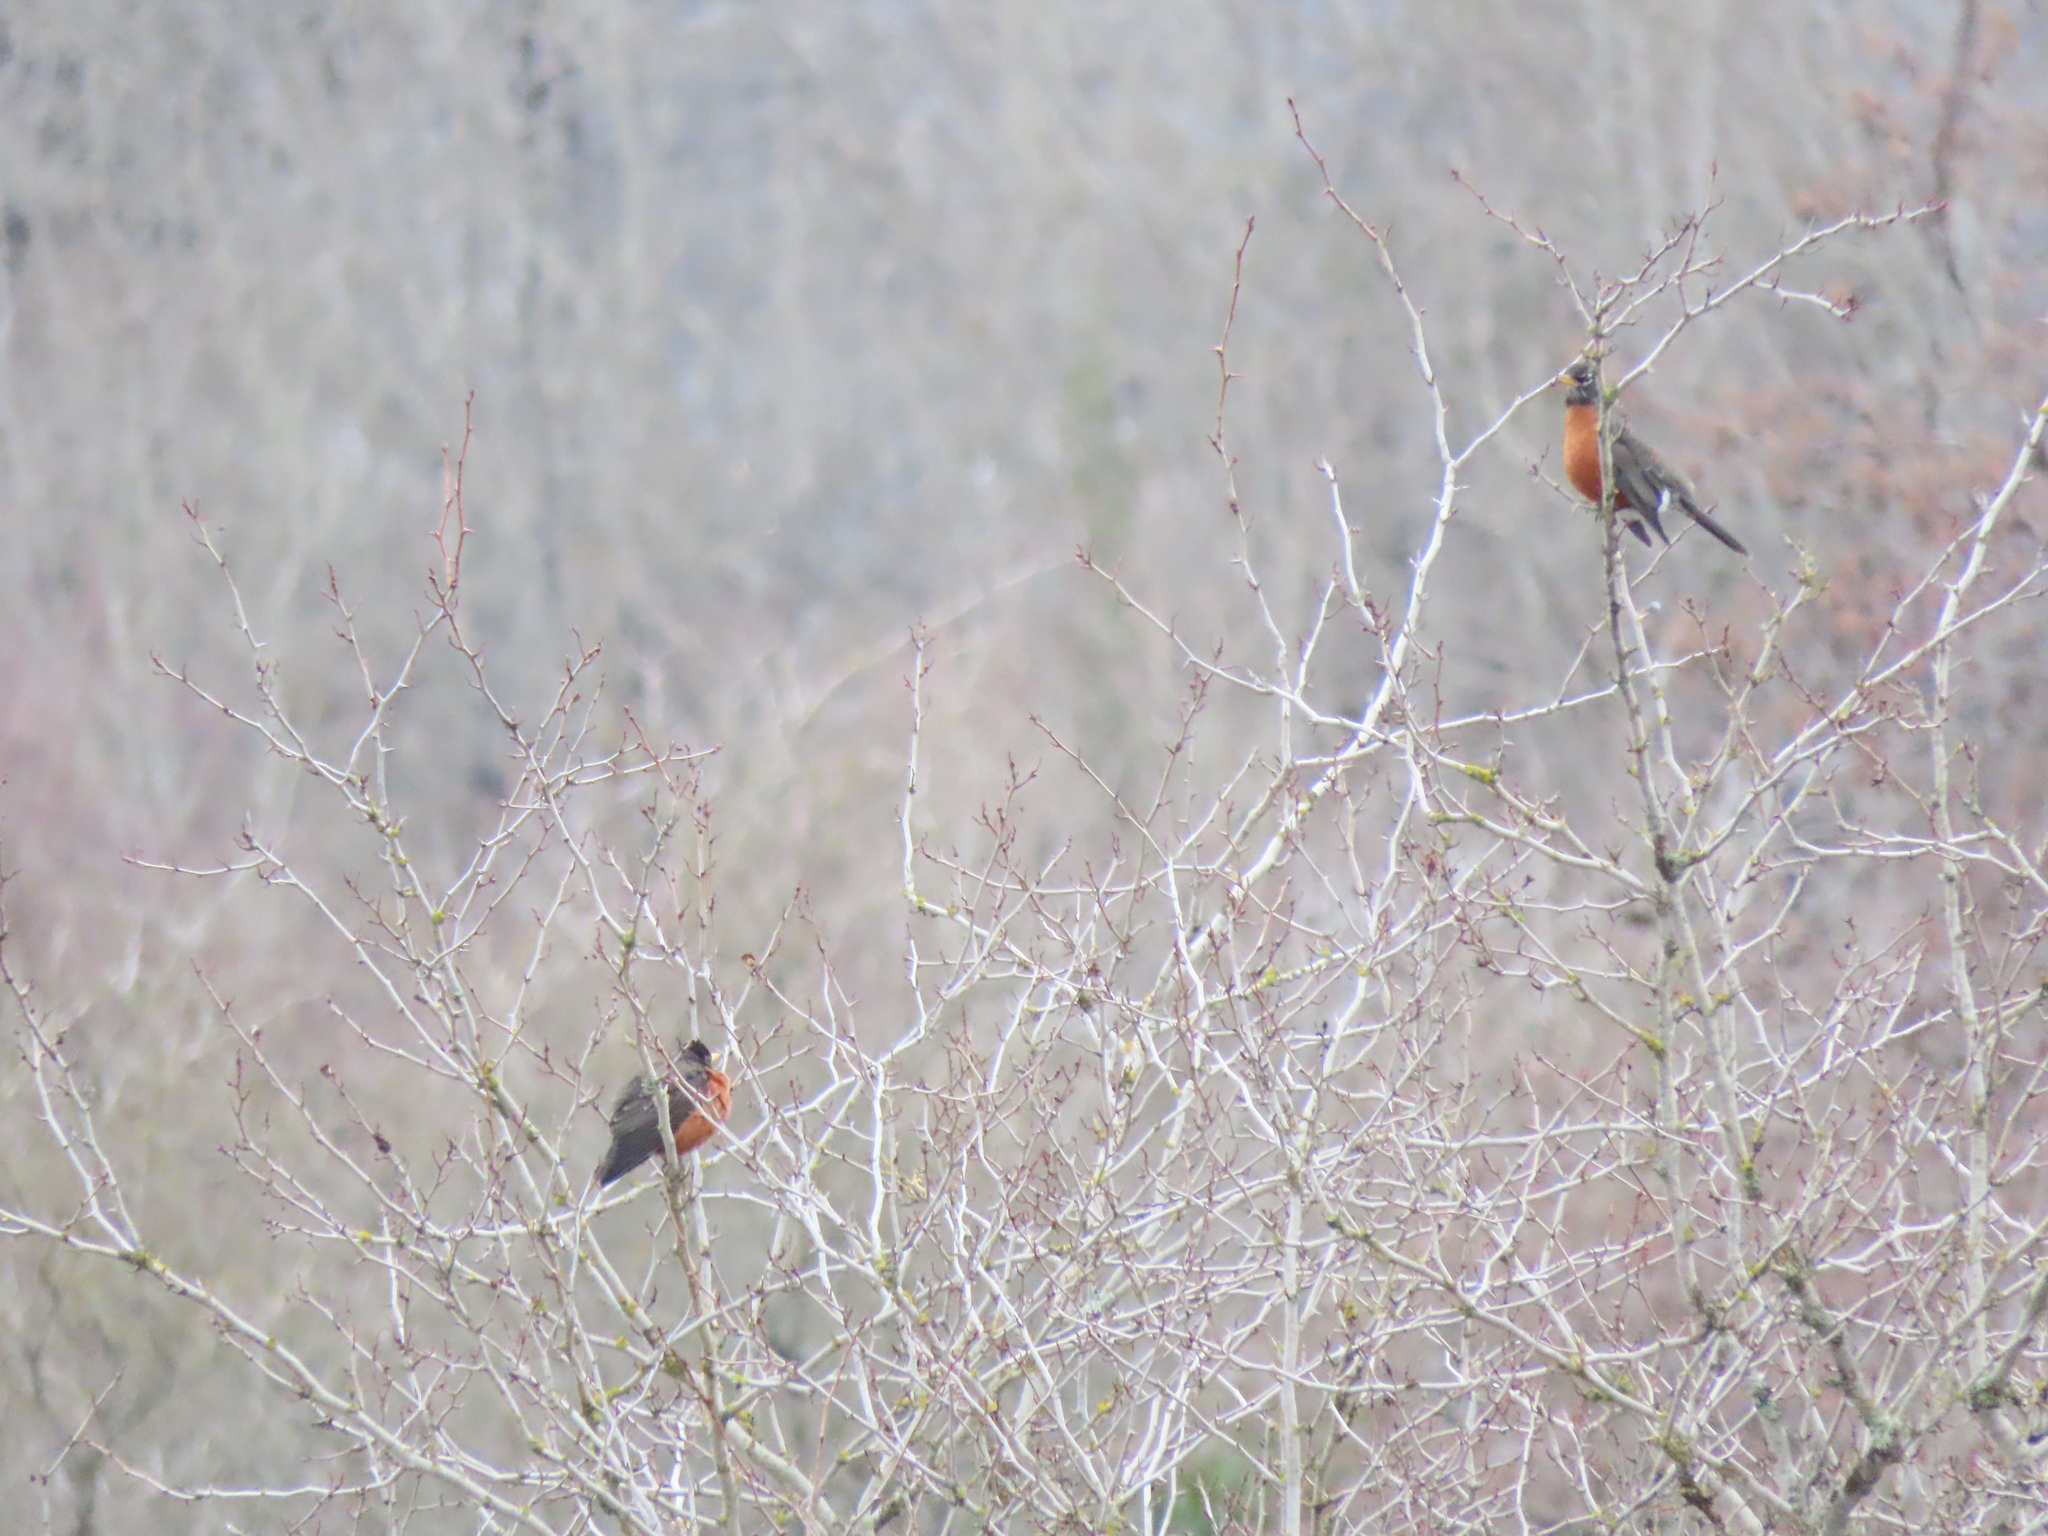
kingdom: Animalia
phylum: Chordata
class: Aves
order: Passeriformes
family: Turdidae
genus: Turdus
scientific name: Turdus migratorius
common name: American robin
